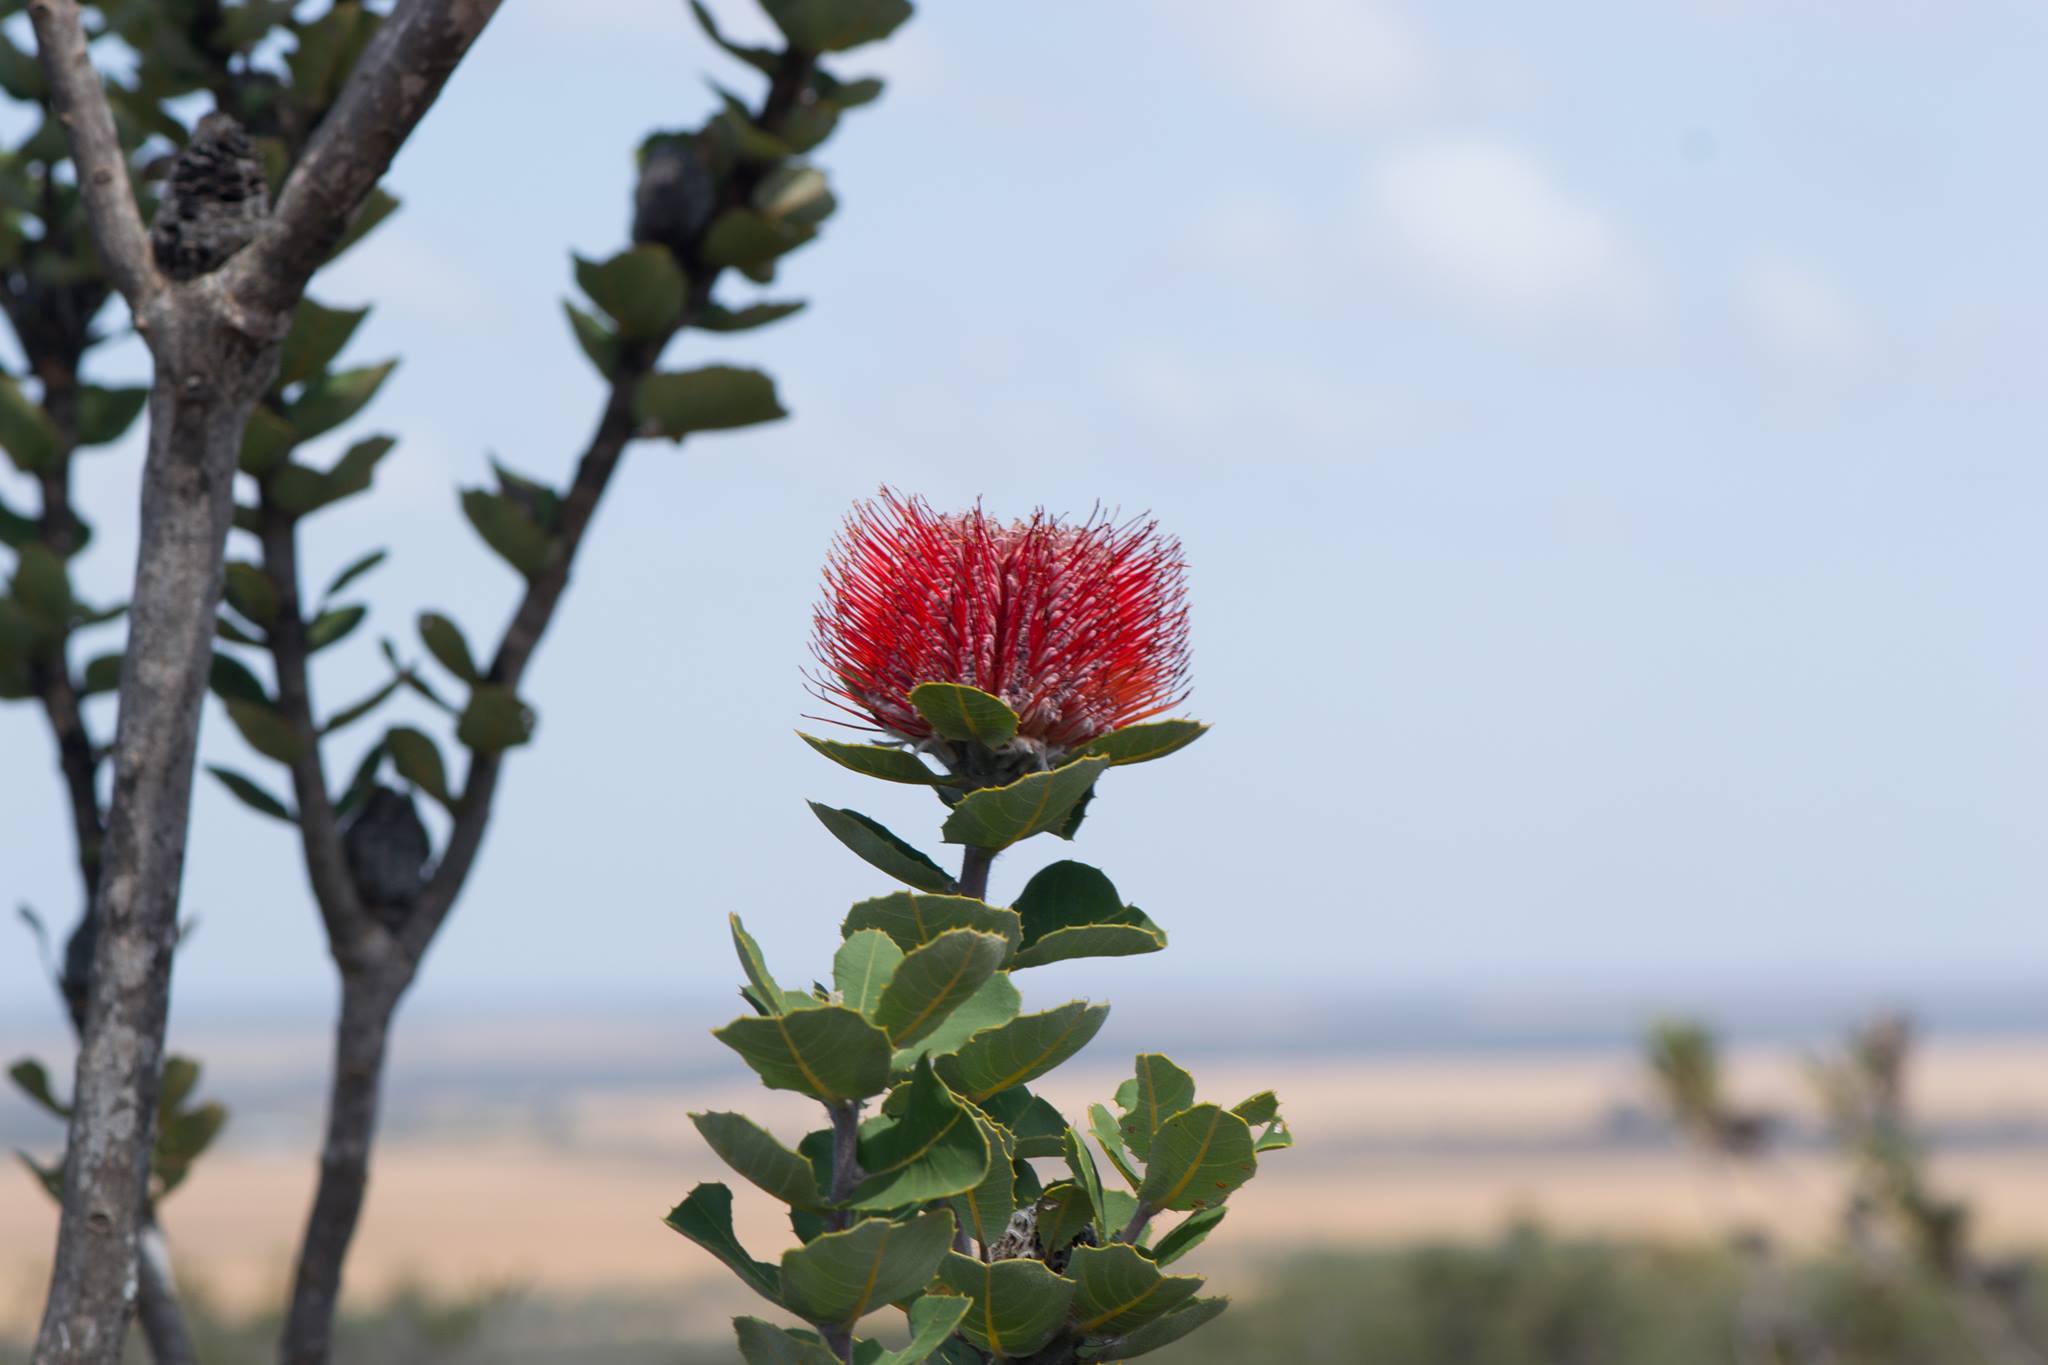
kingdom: Plantae
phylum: Tracheophyta
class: Magnoliopsida
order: Proteales
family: Proteaceae
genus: Banksia
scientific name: Banksia coccinea
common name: Scarlet banksia
